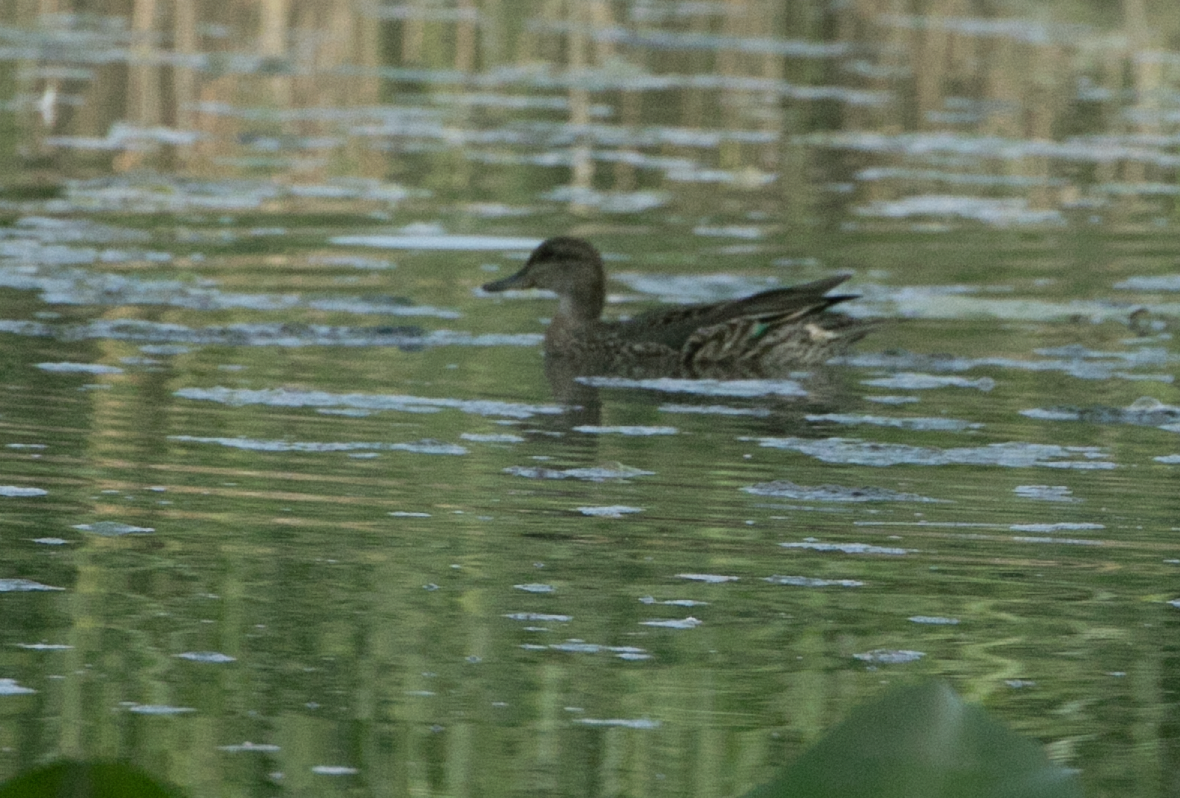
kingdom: Animalia
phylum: Chordata
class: Aves
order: Anseriformes
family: Anatidae
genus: Anas
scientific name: Anas crecca
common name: Eurasian teal
